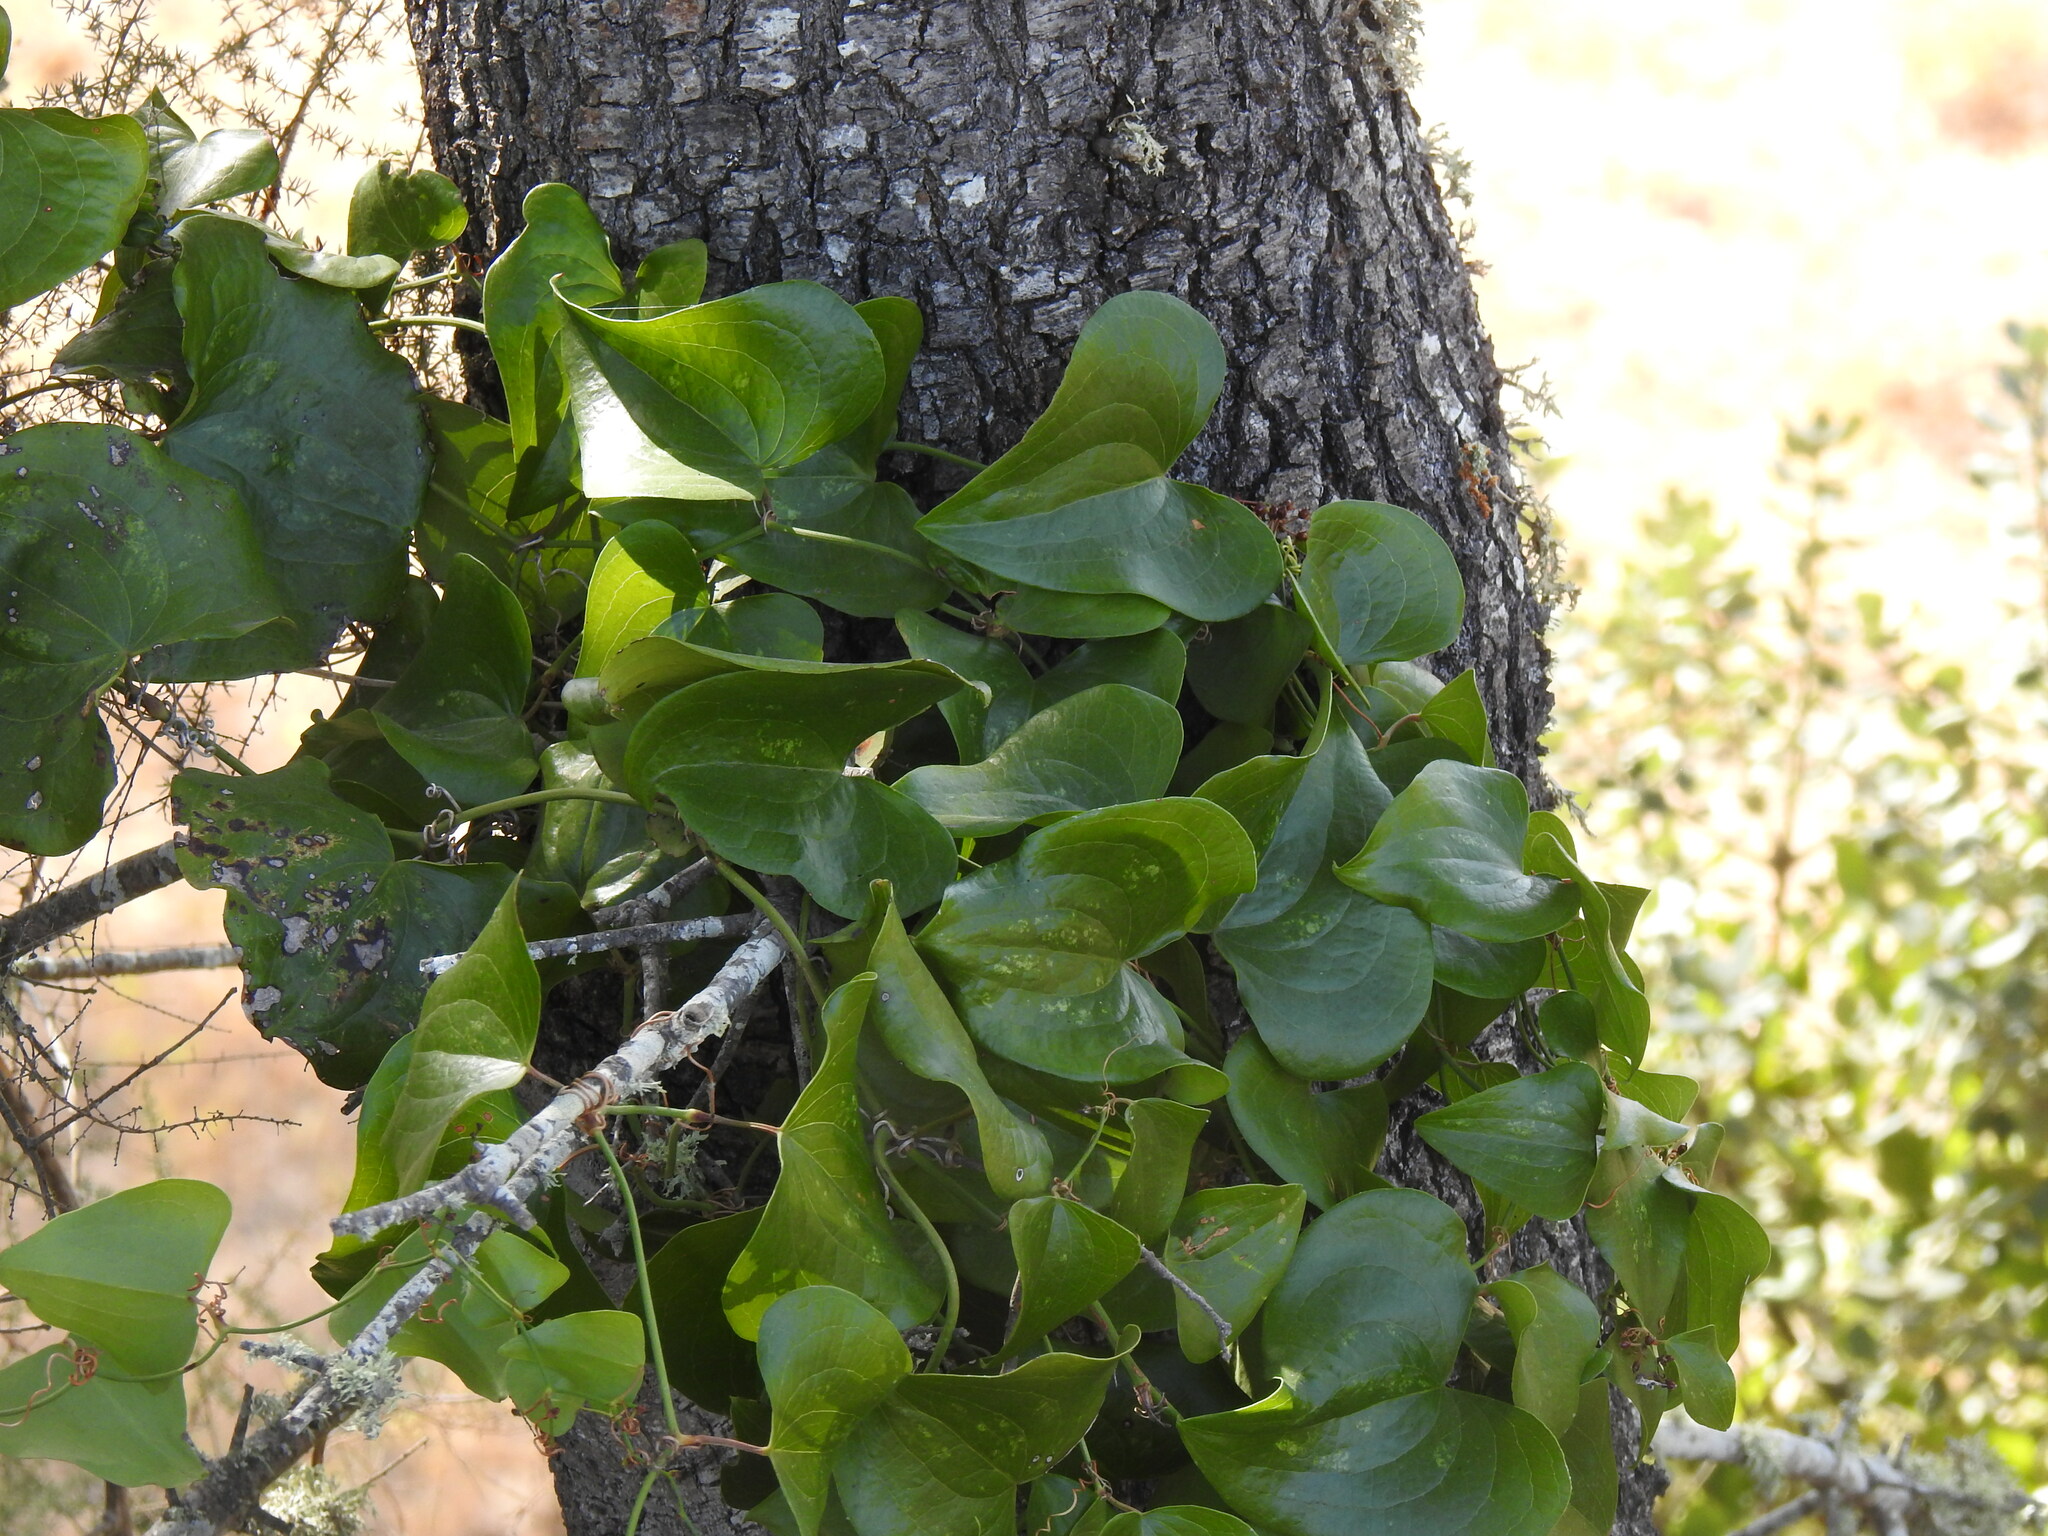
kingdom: Plantae
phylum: Tracheophyta
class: Liliopsida
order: Liliales
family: Smilacaceae
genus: Smilax
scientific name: Smilax aspera
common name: Common smilax
